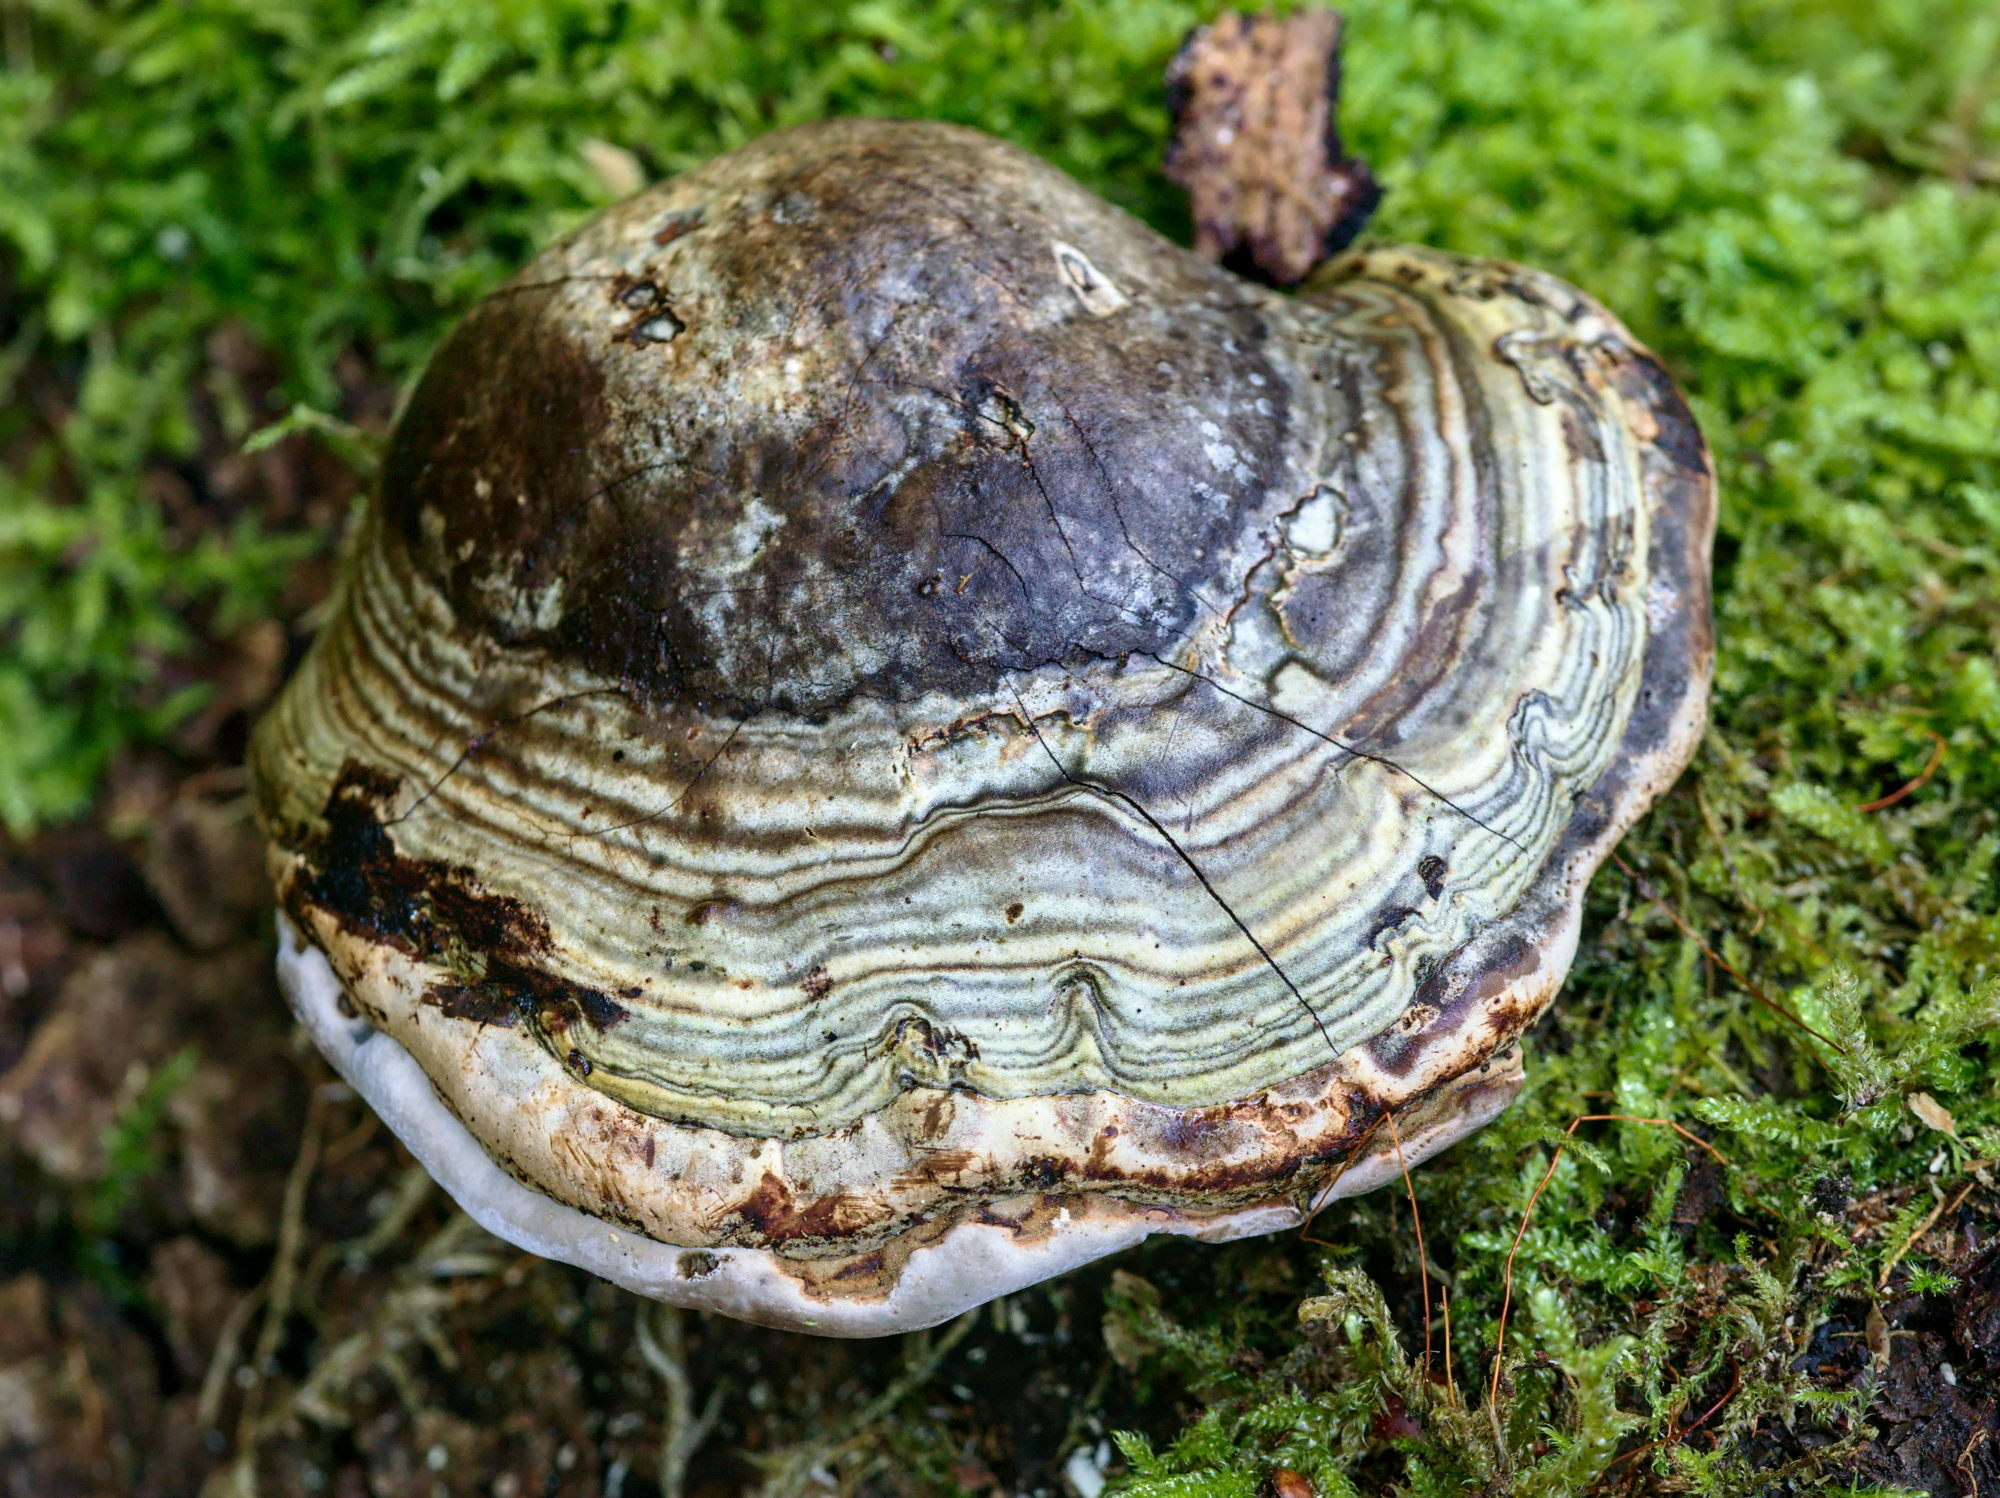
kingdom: Fungi
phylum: Basidiomycota
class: Agaricomycetes
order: Polyporales
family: Polyporaceae
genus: Fomes
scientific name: Fomes fomentarius
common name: Hoof fungus
